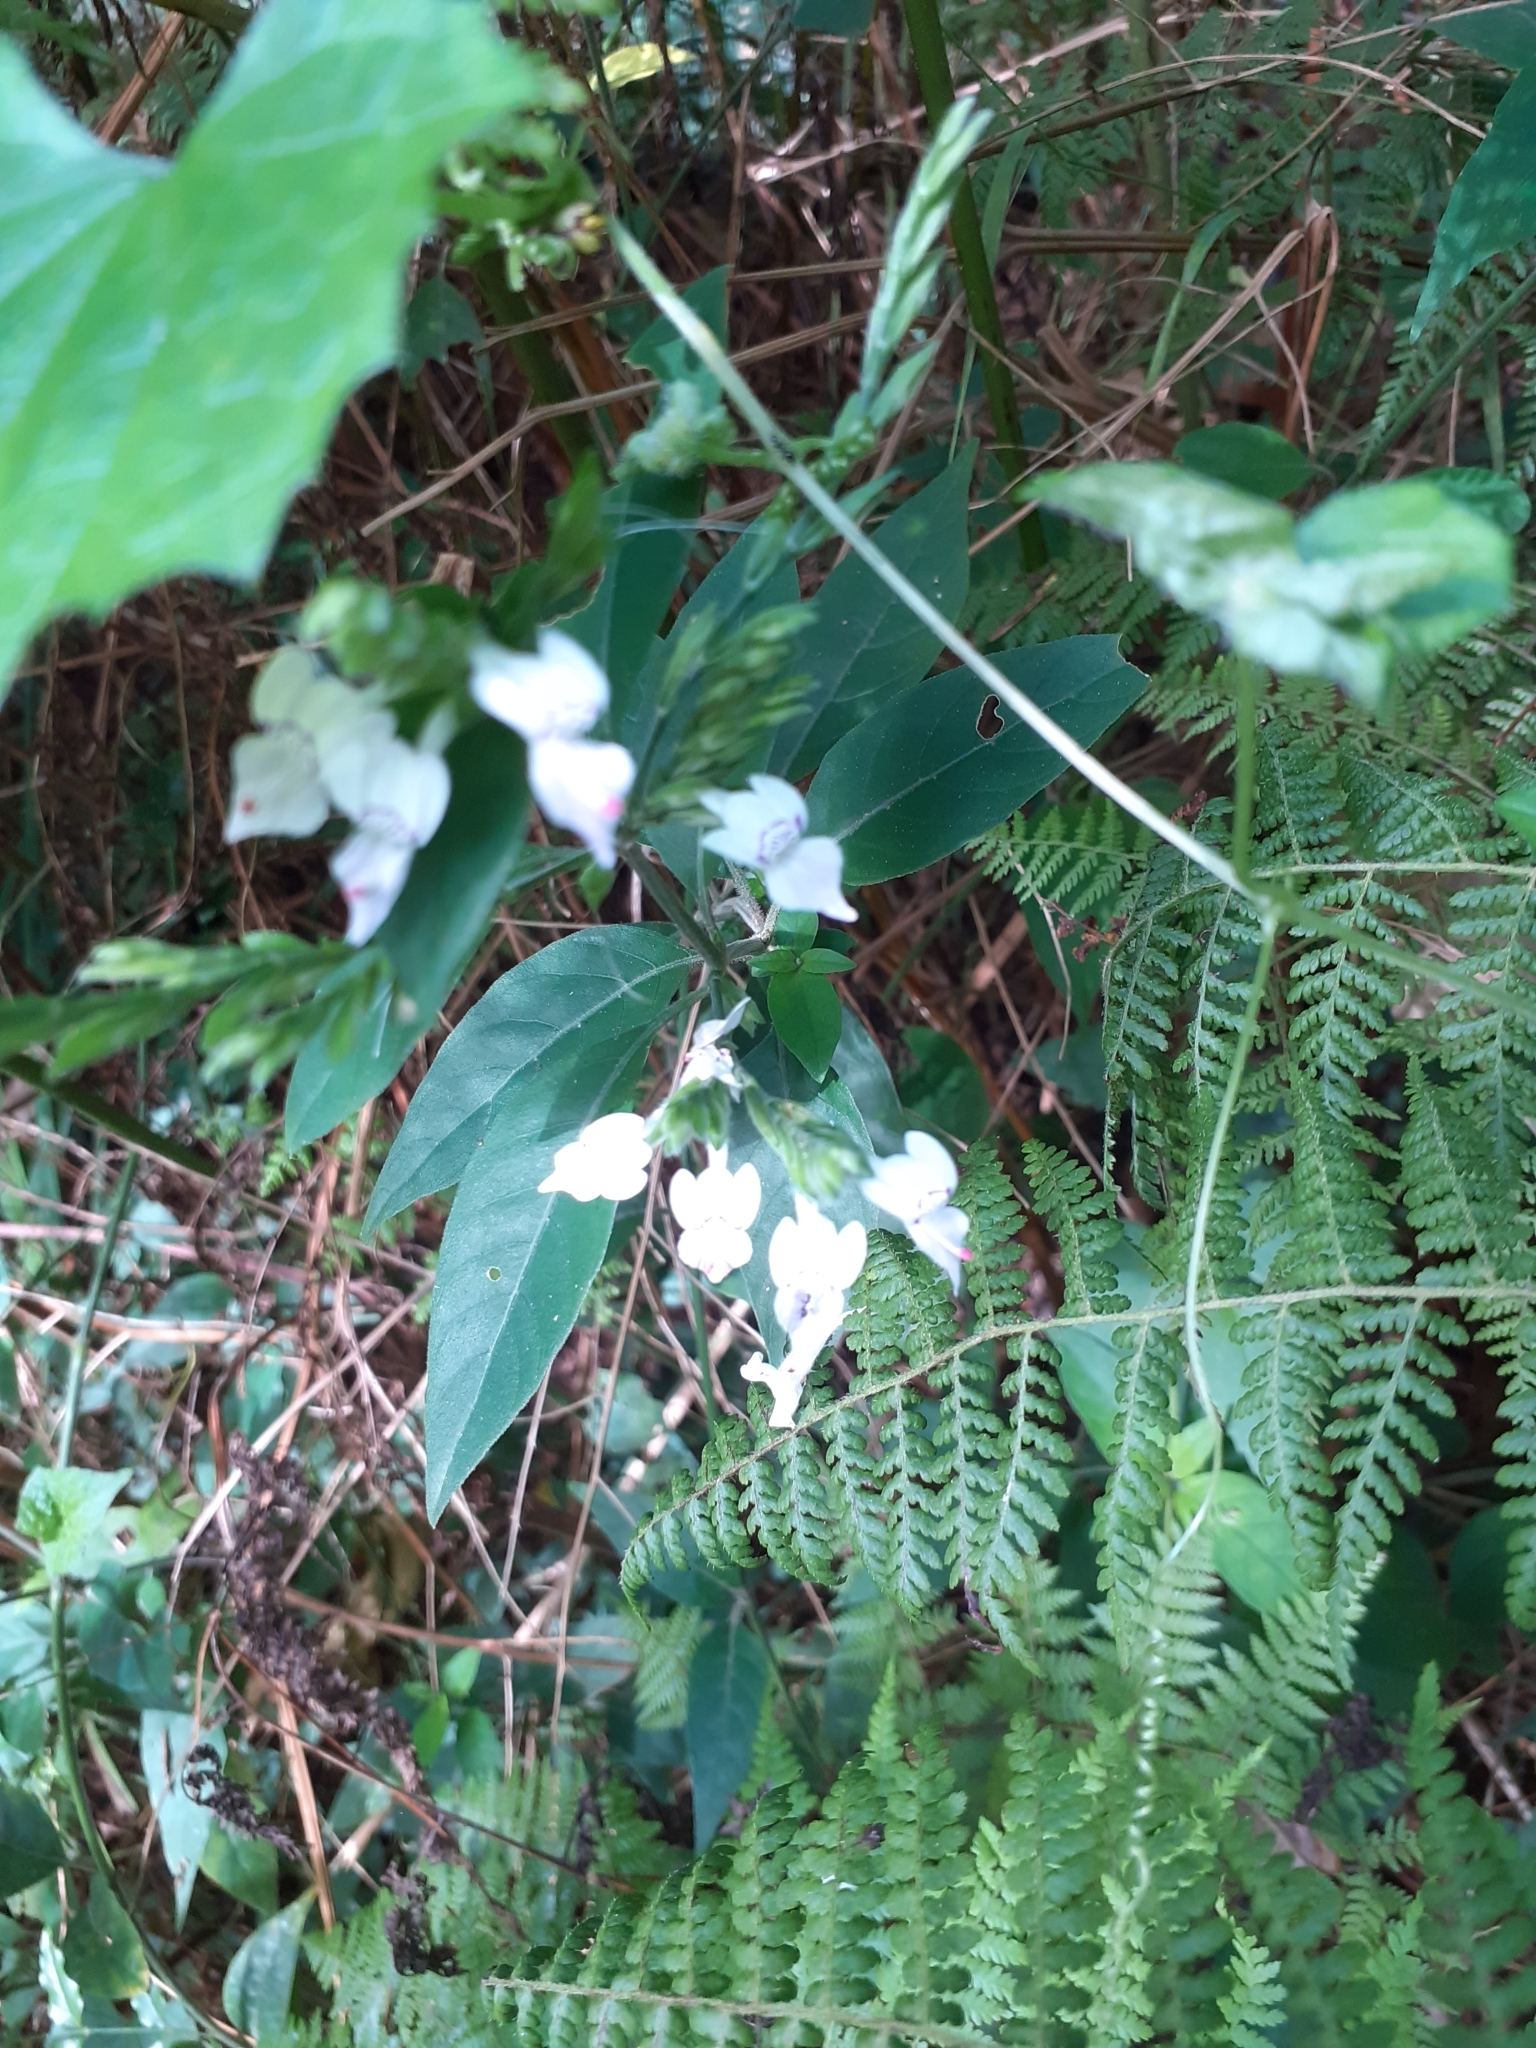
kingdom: Plantae
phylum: Tracheophyta
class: Magnoliopsida
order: Lamiales
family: Acanthaceae
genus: Hypoestes
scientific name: Hypoestes forskaolii
